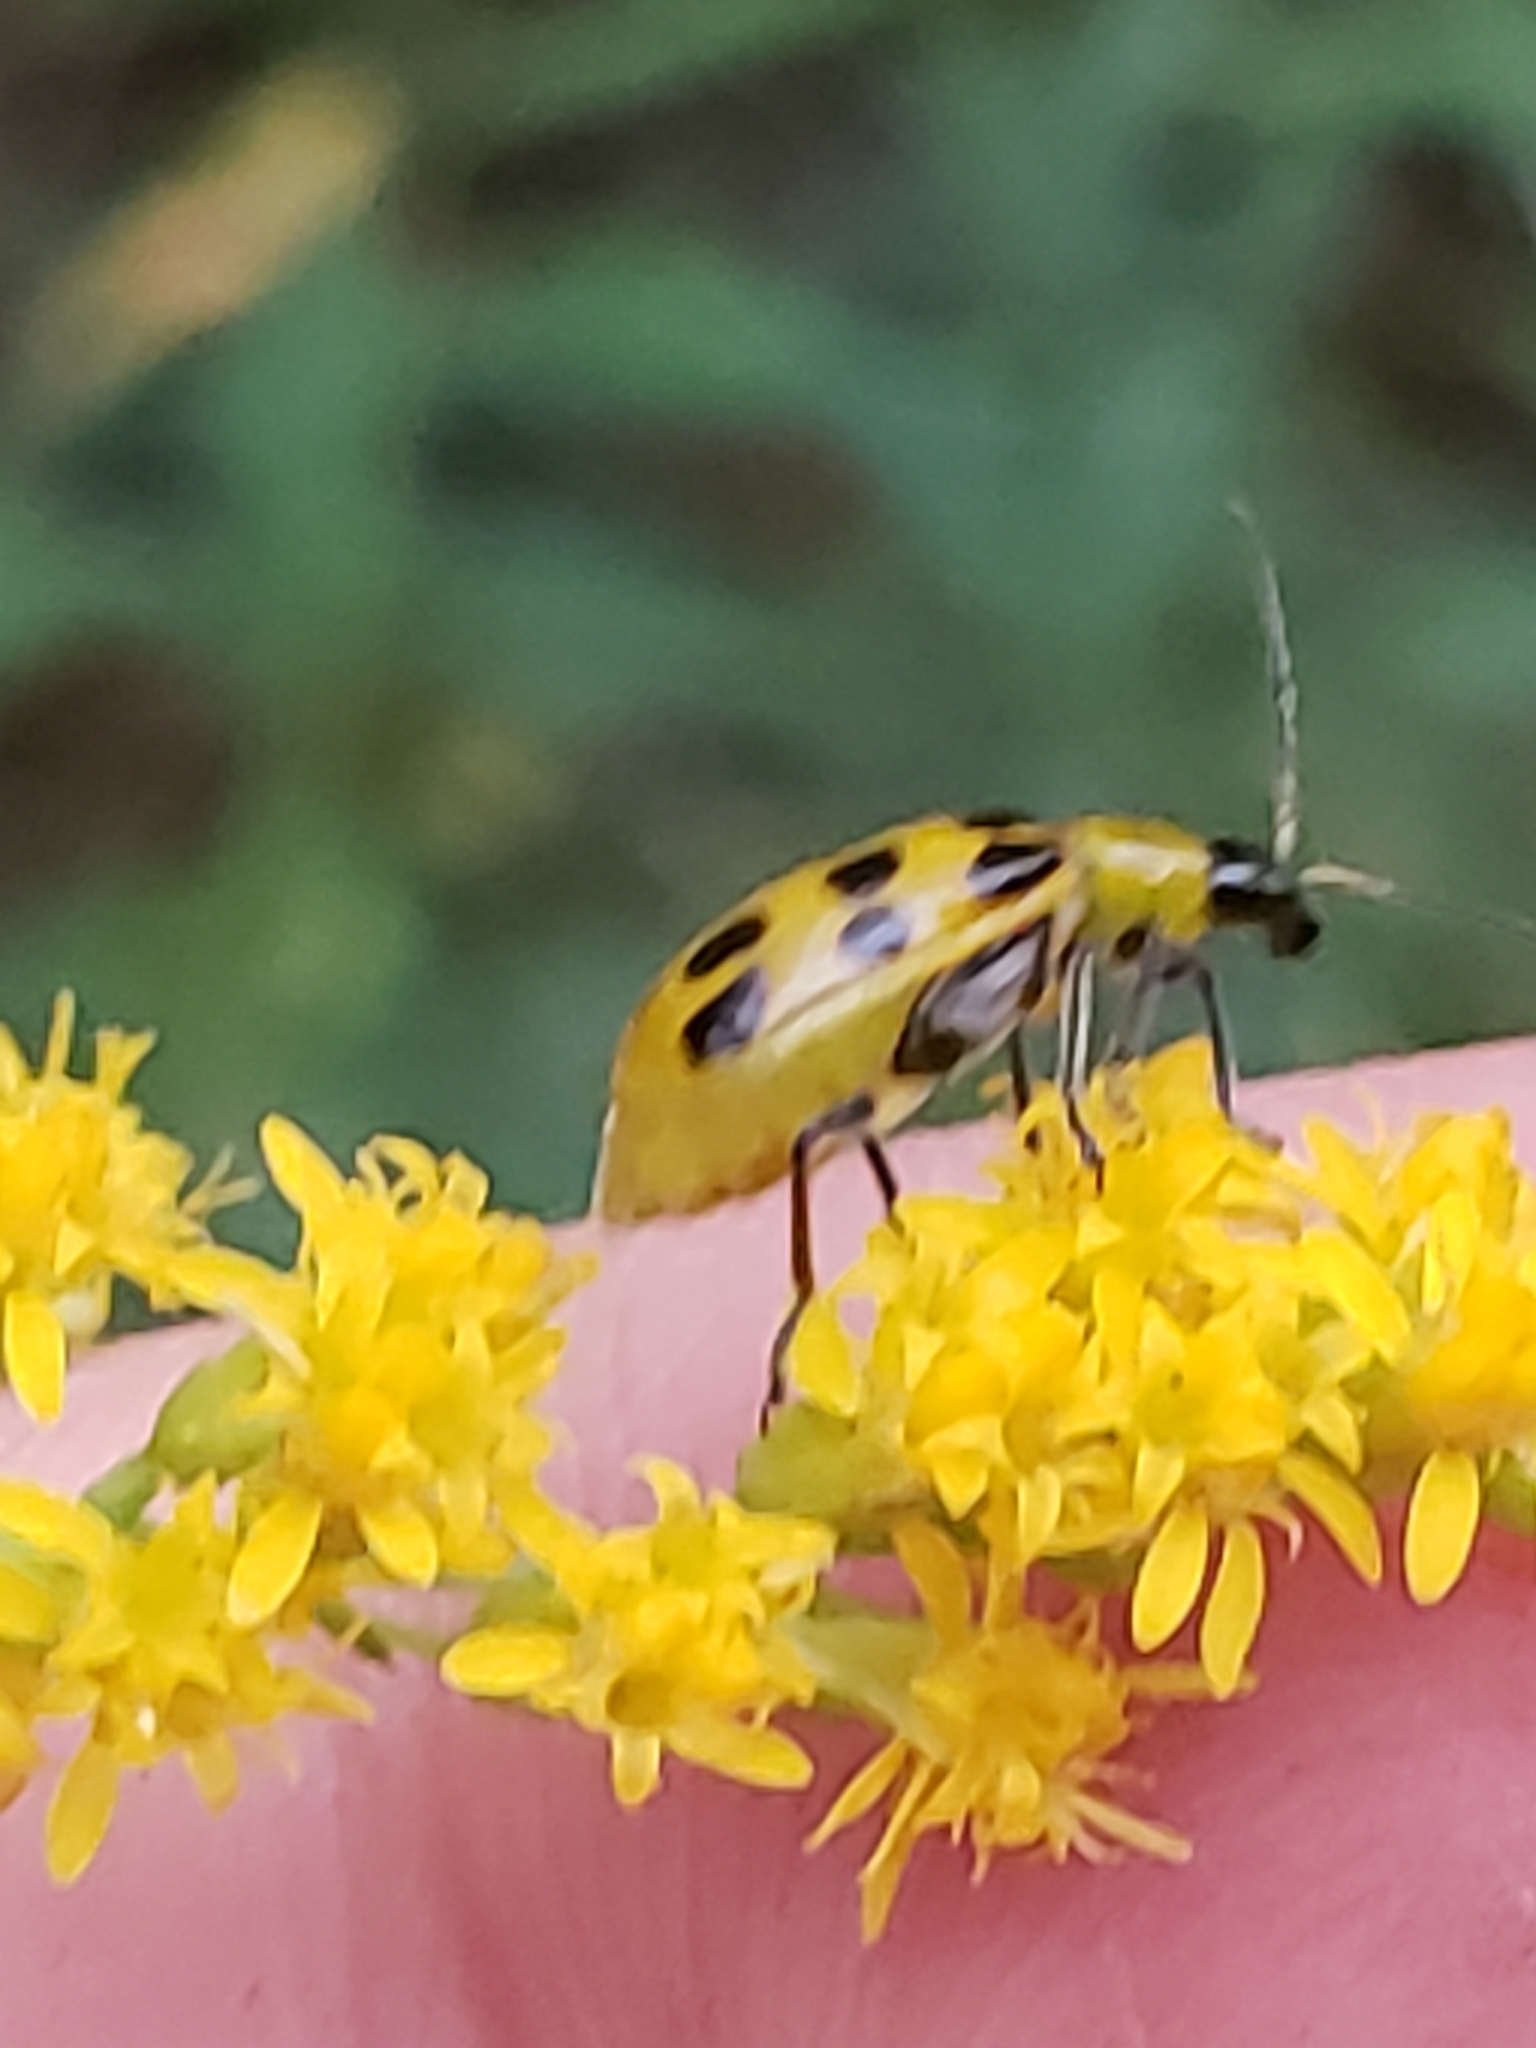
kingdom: Animalia
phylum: Arthropoda
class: Insecta
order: Coleoptera
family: Chrysomelidae
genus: Diabrotica
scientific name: Diabrotica undecimpunctata
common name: Spotted cucumber beetle
